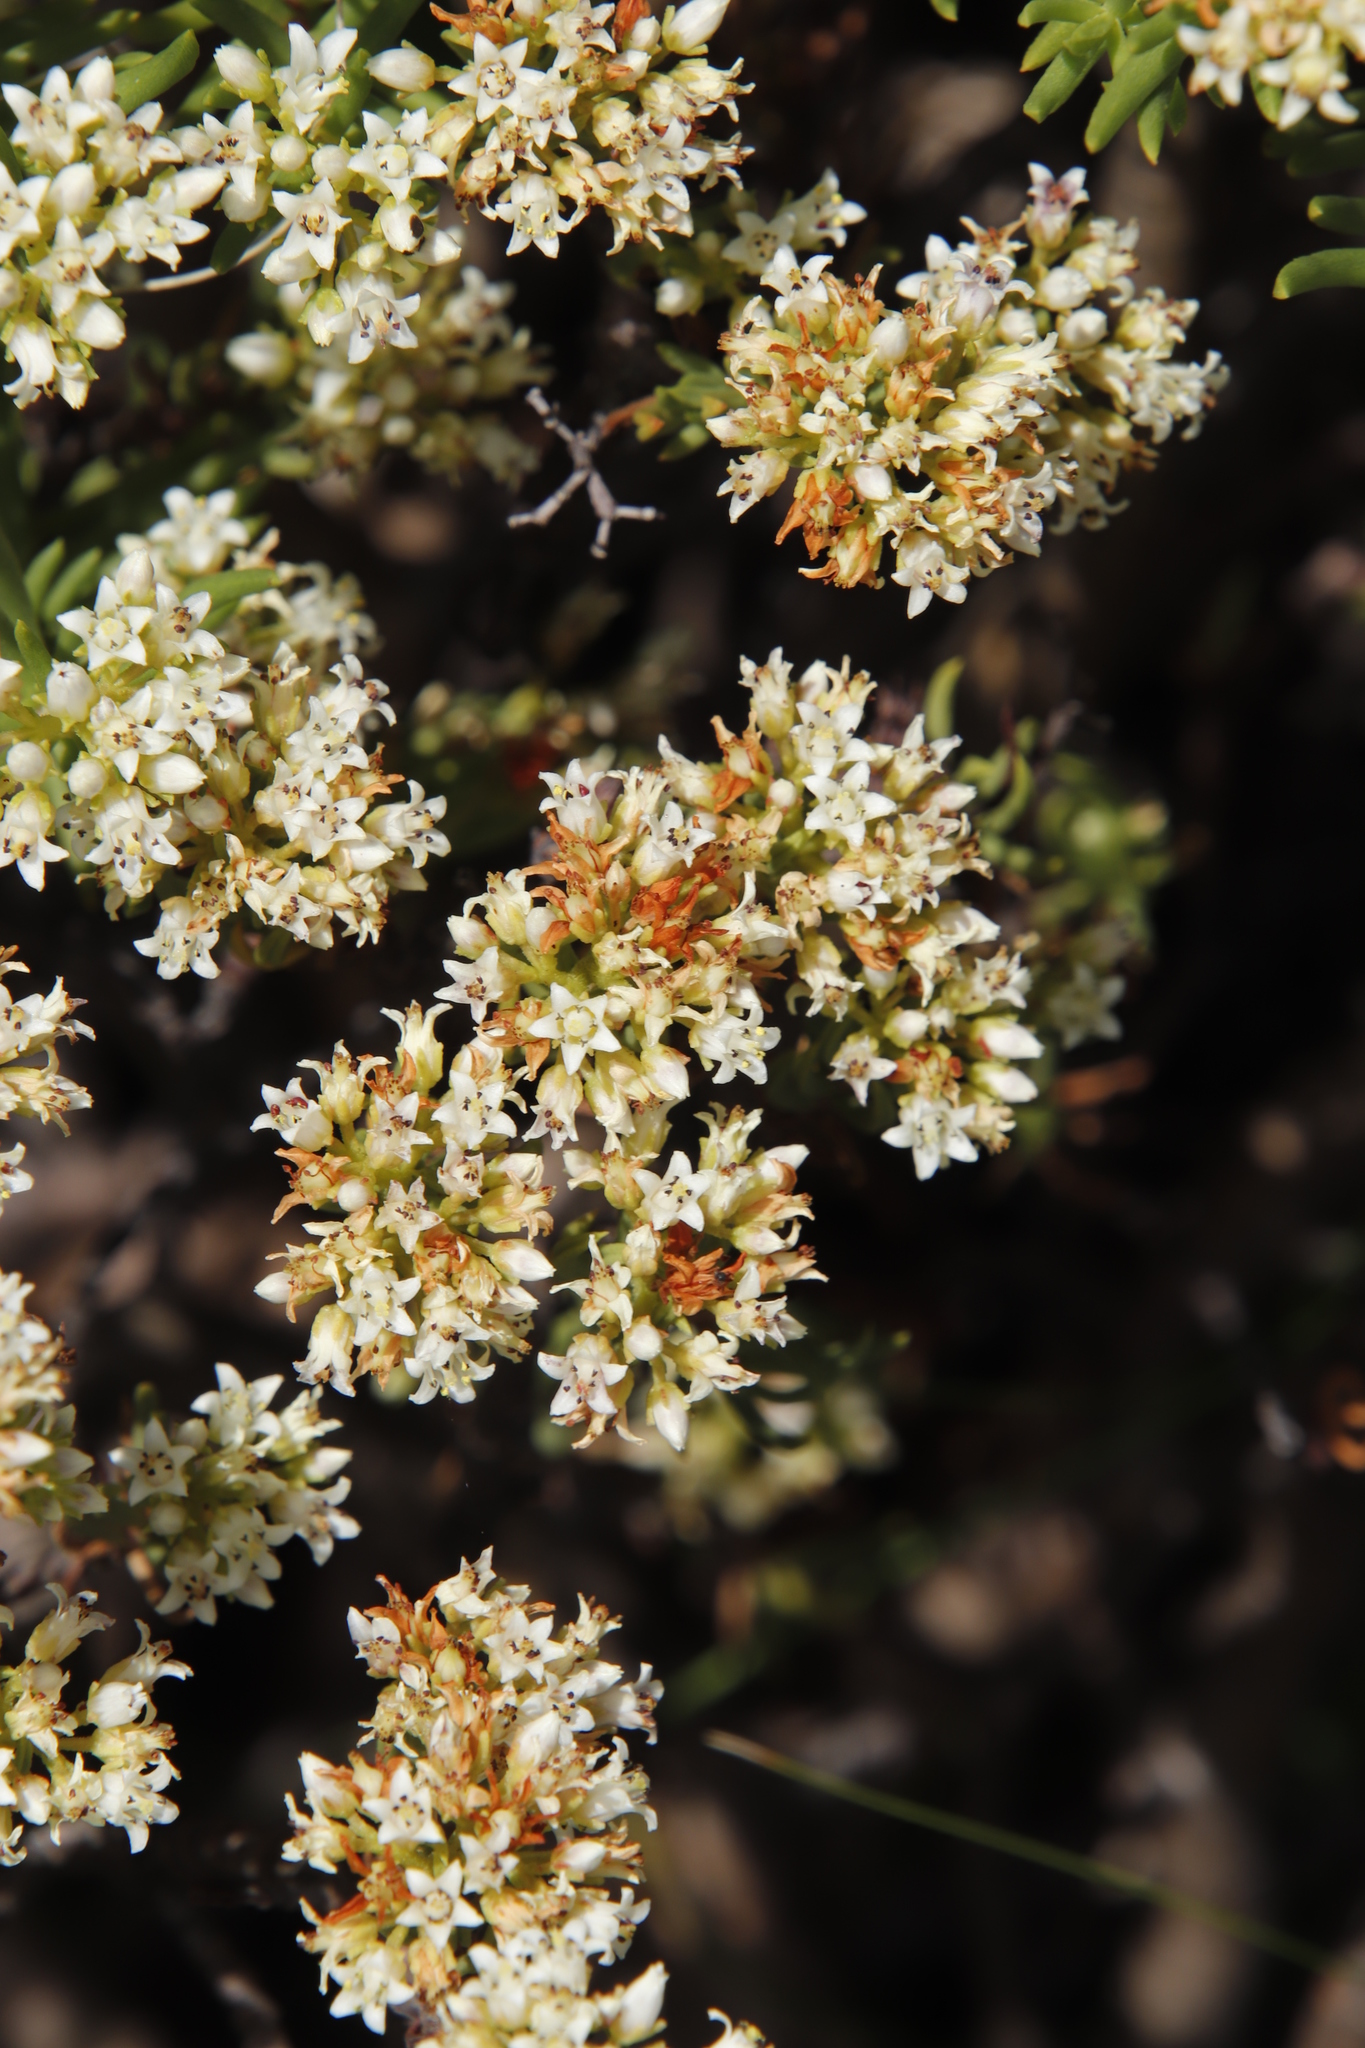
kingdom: Plantae
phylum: Tracheophyta
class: Magnoliopsida
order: Saxifragales
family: Crassulaceae
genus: Crassula
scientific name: Crassula sarcocaulis
